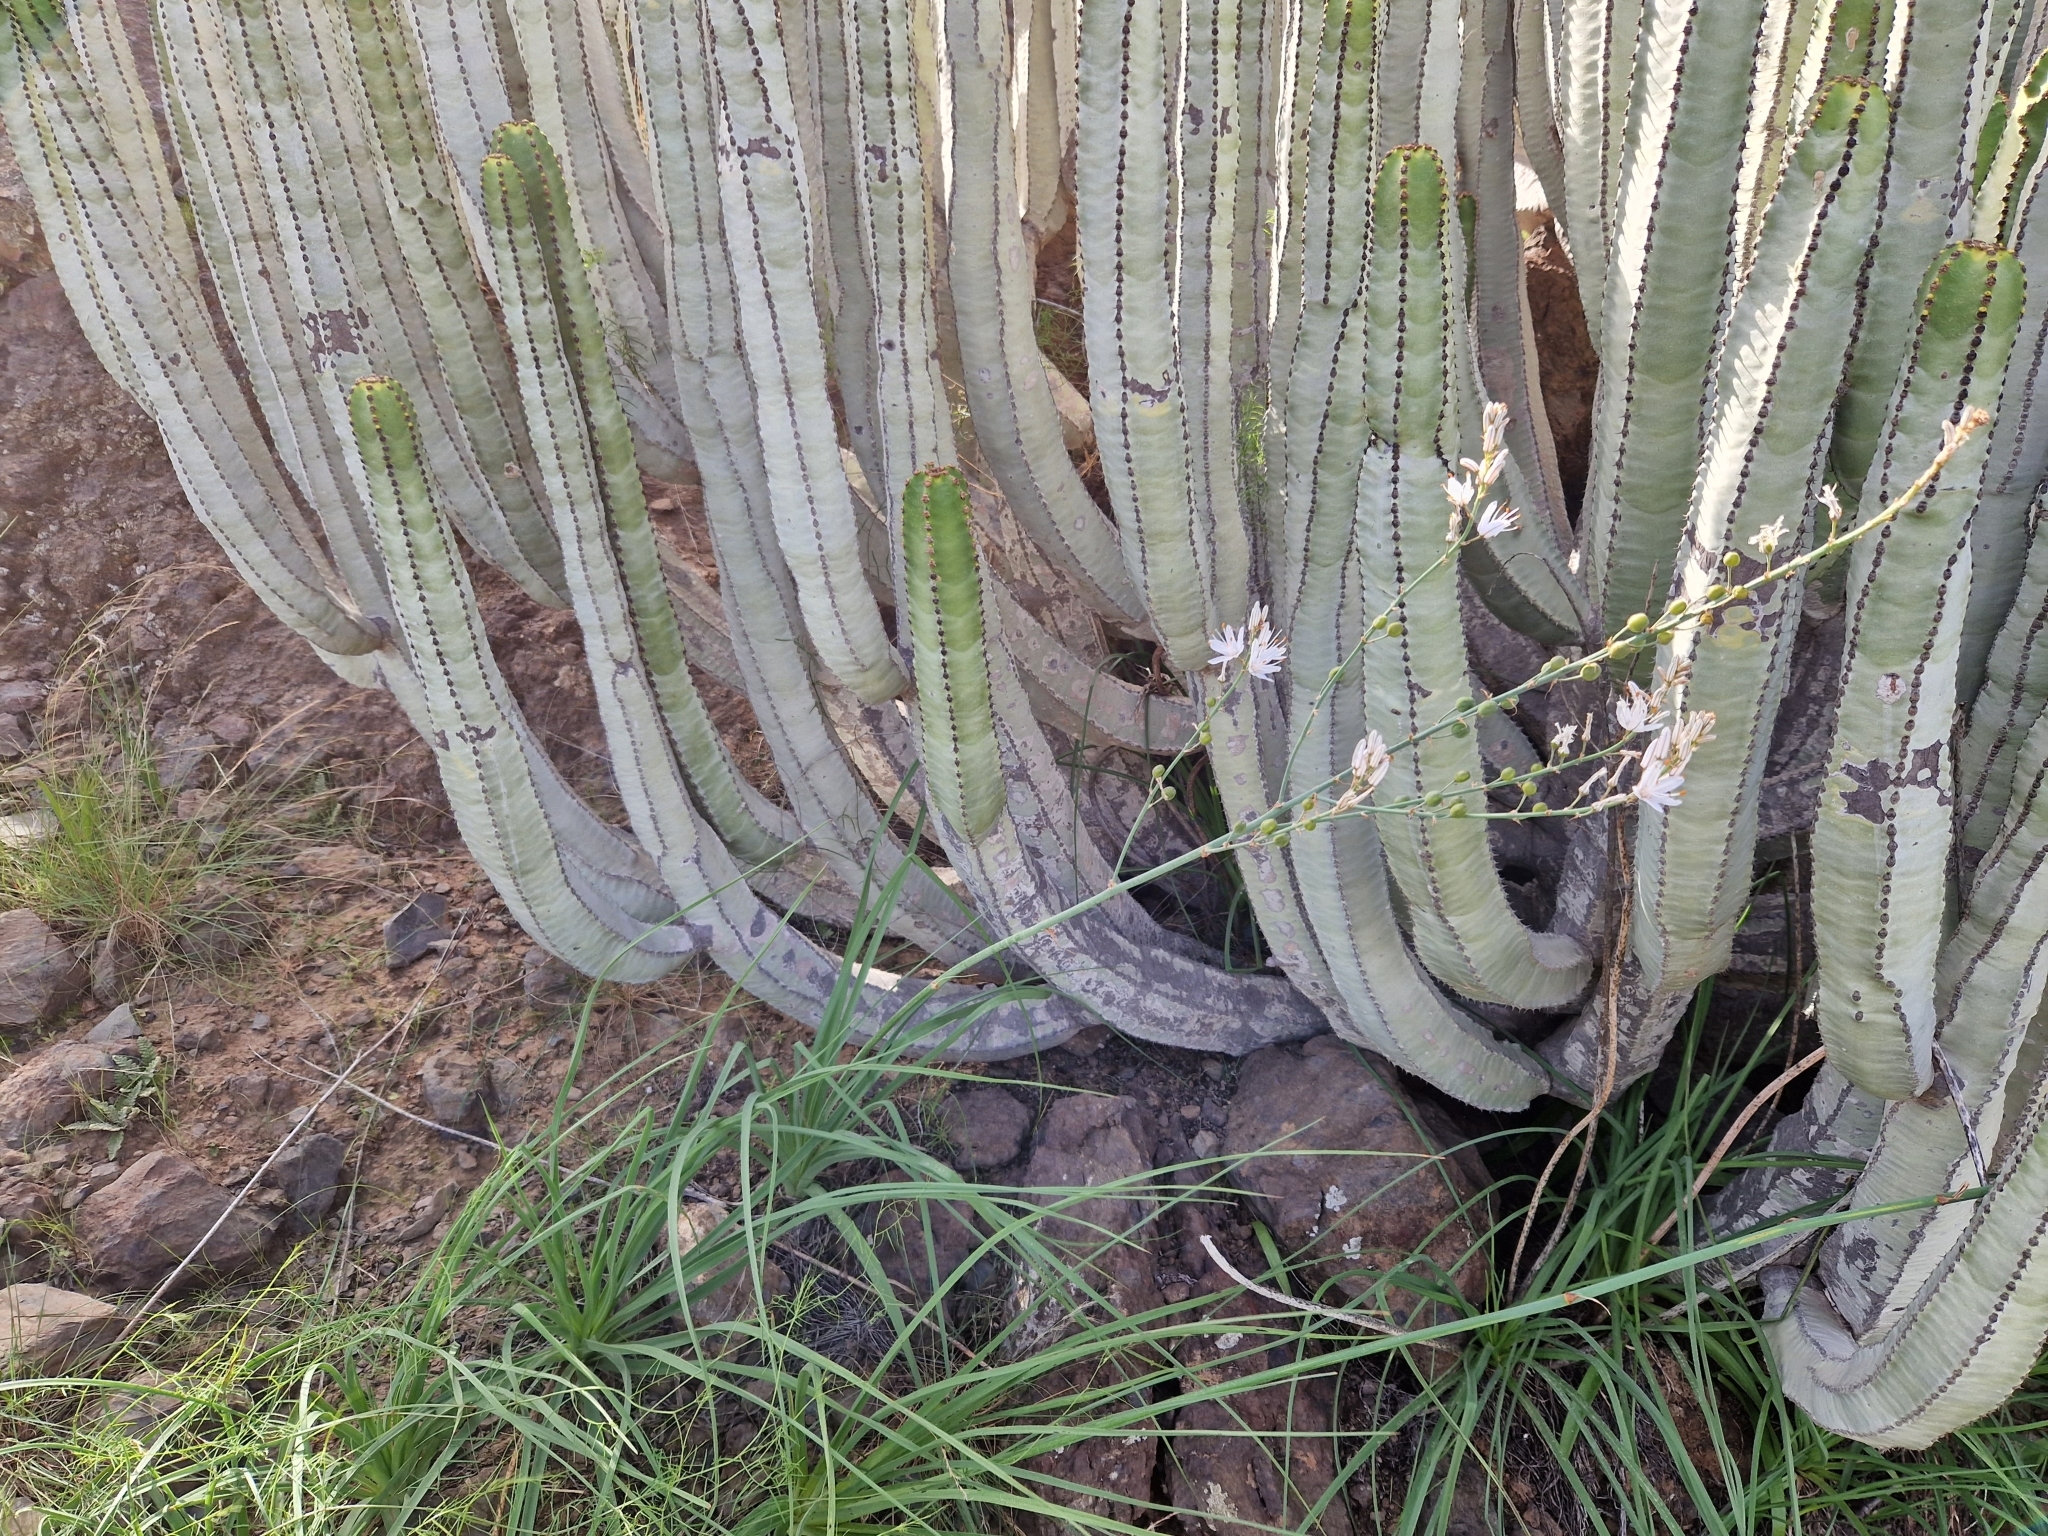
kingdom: Plantae
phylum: Tracheophyta
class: Liliopsida
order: Asparagales
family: Asphodelaceae
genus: Asphodelus
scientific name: Asphodelus ramosus
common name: Silverrod
